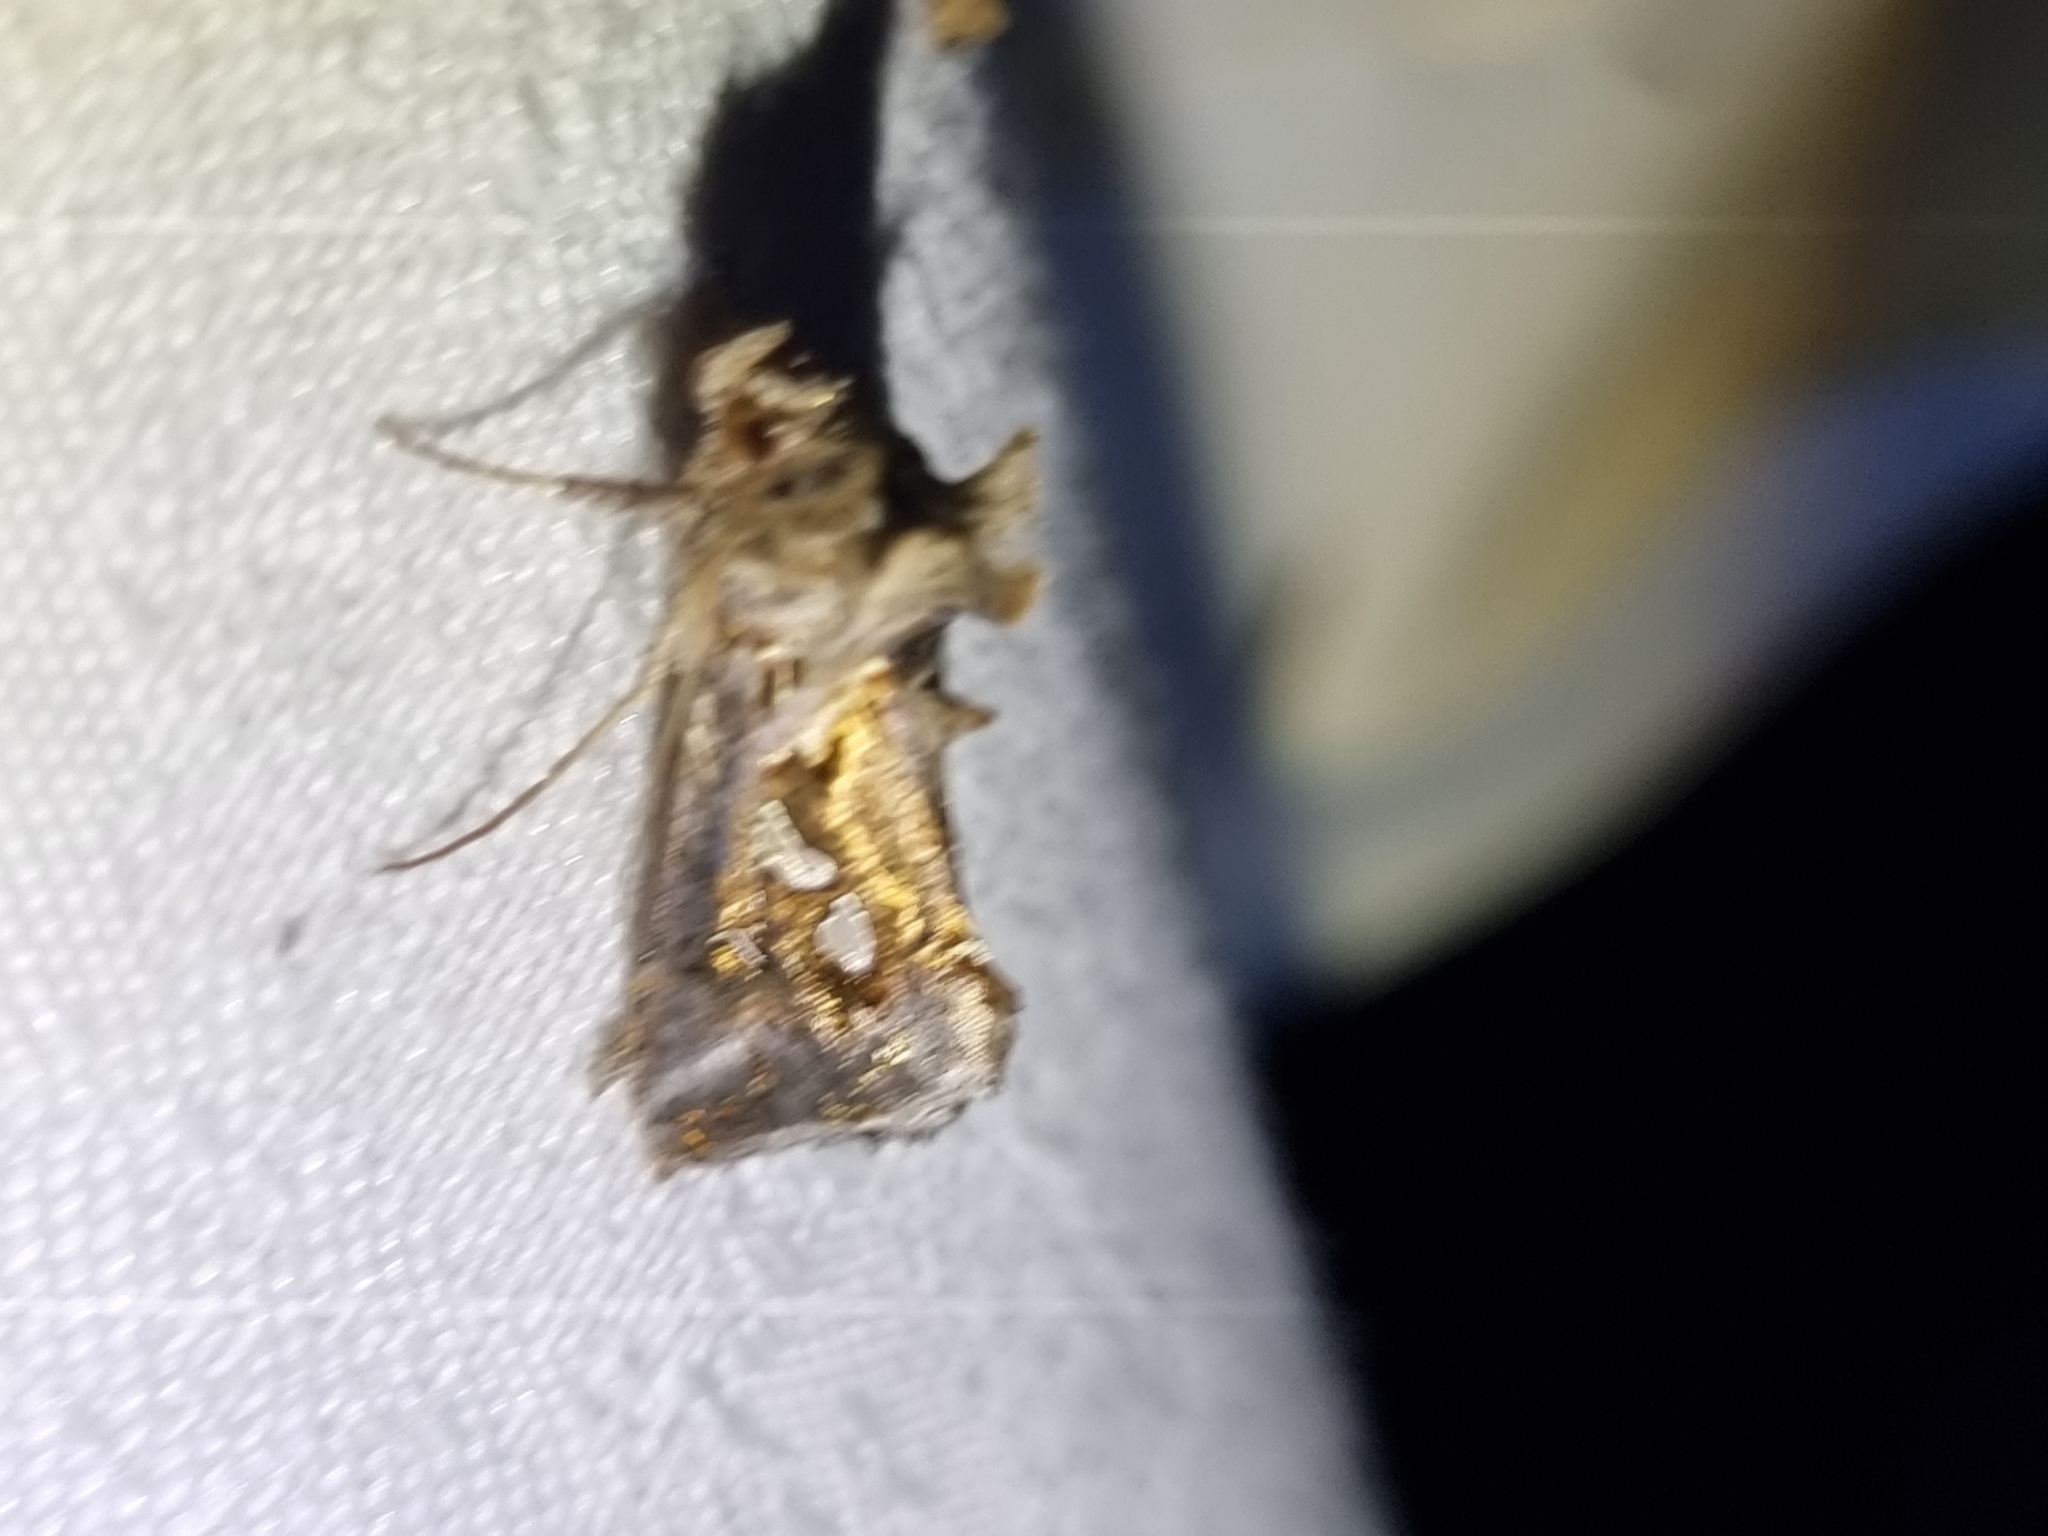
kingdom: Animalia
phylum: Arthropoda
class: Insecta
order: Lepidoptera
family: Noctuidae
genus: Chrysodeixis
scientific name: Chrysodeixis argentifera
